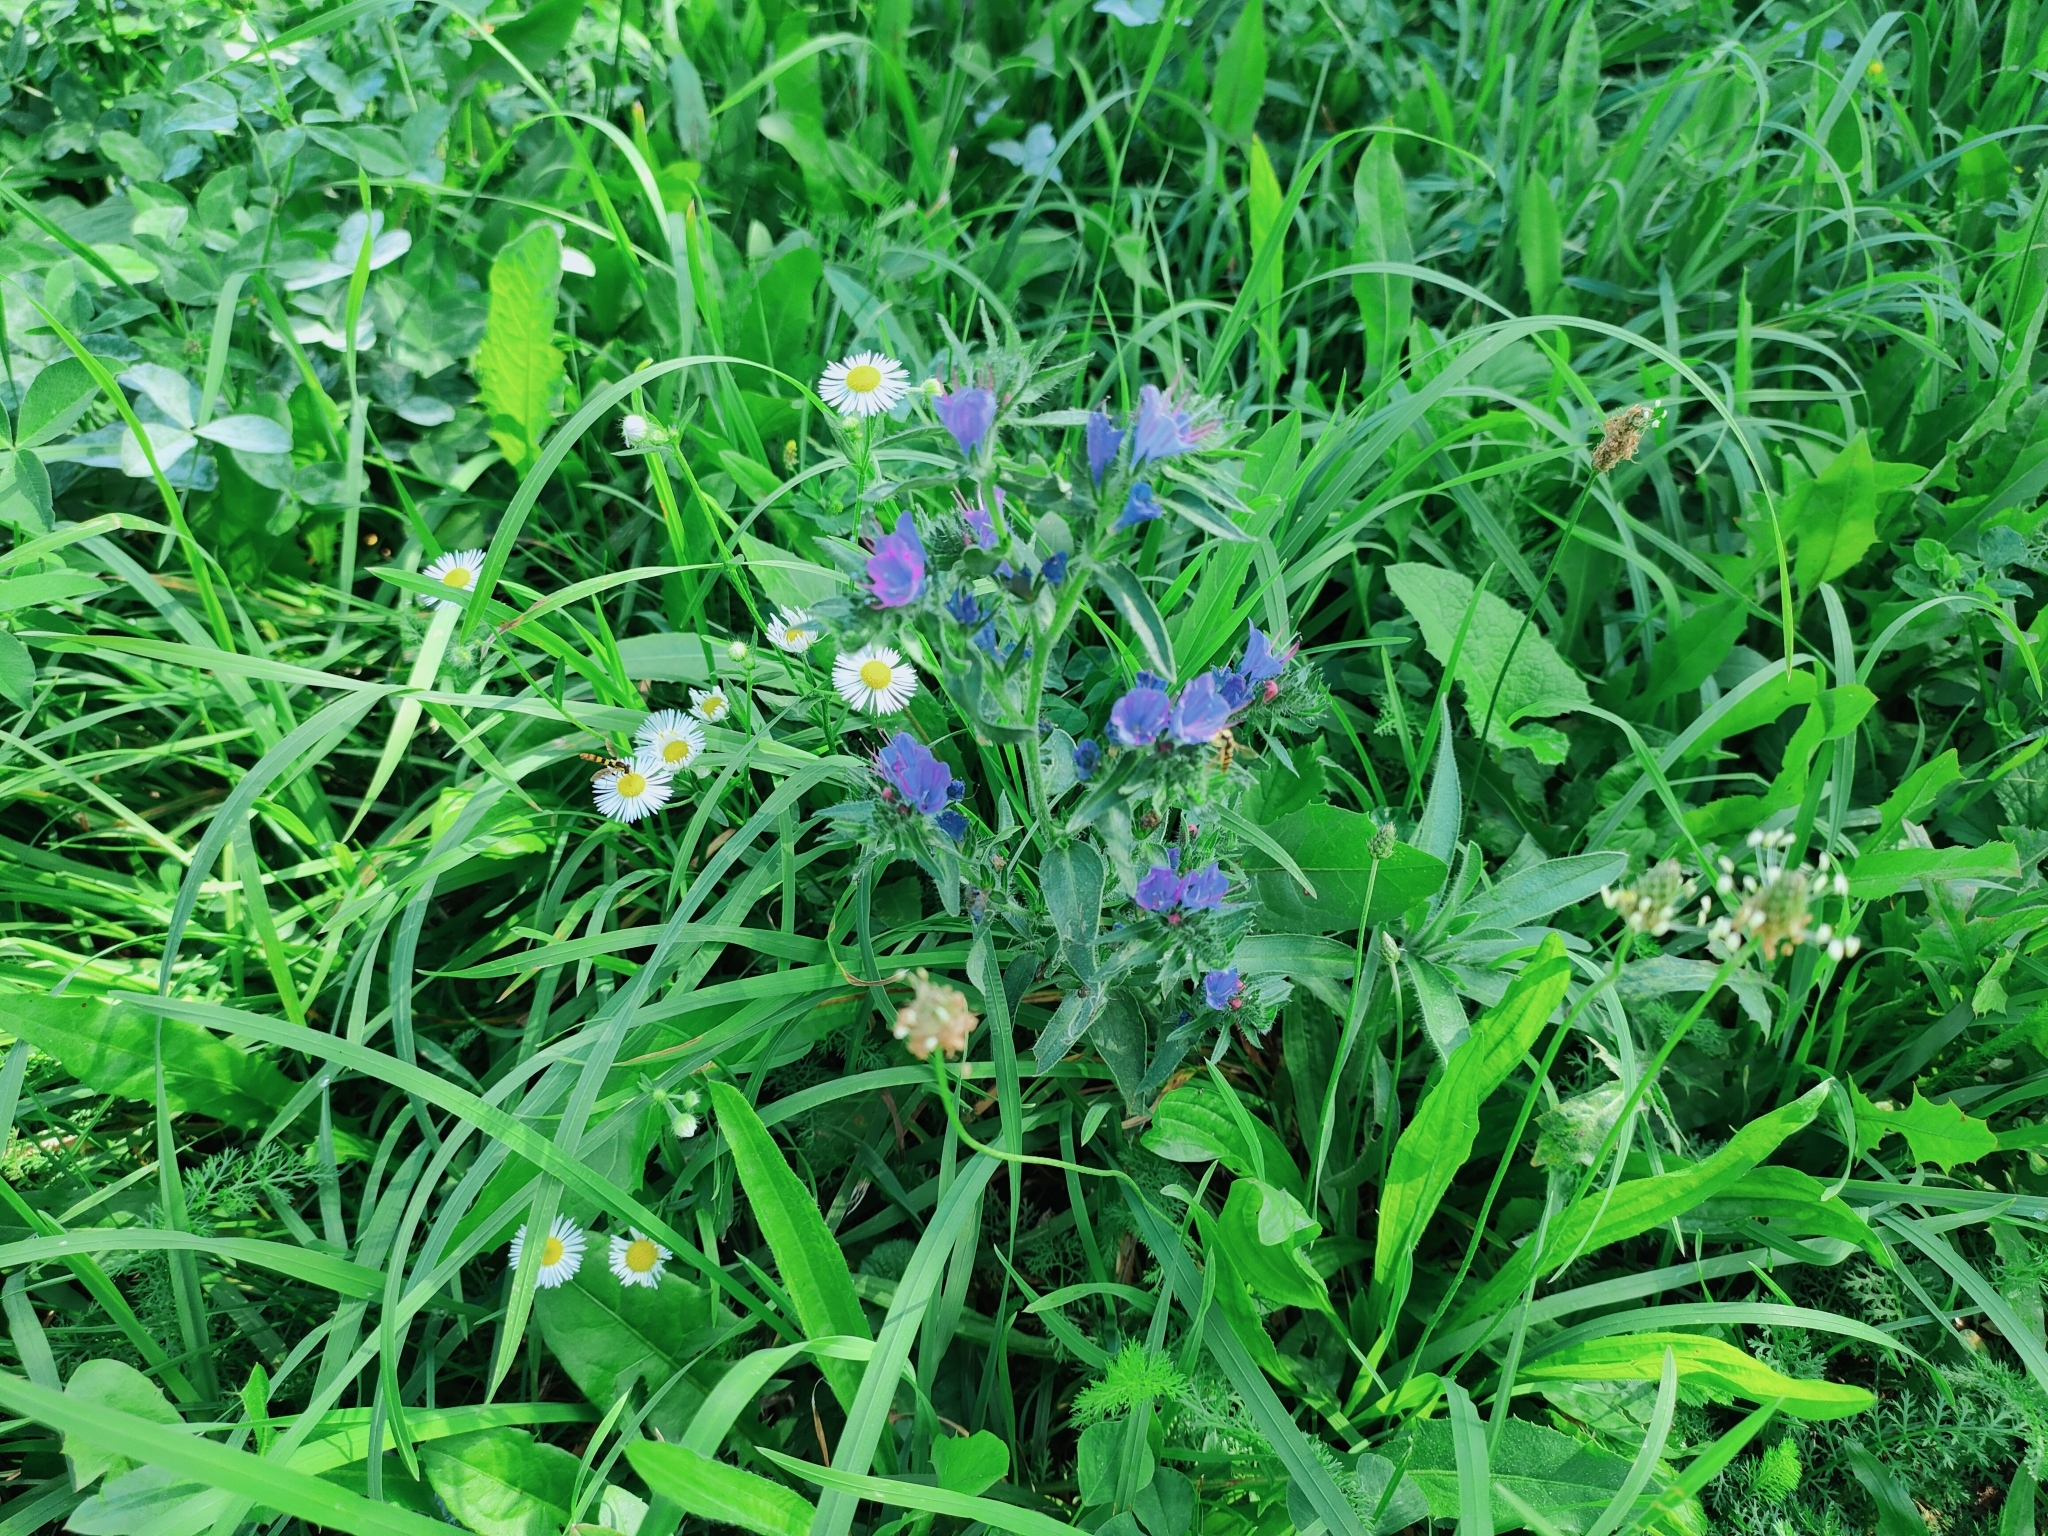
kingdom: Plantae
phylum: Tracheophyta
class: Magnoliopsida
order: Boraginales
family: Boraginaceae
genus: Echium
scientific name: Echium vulgare
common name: Common viper's bugloss
